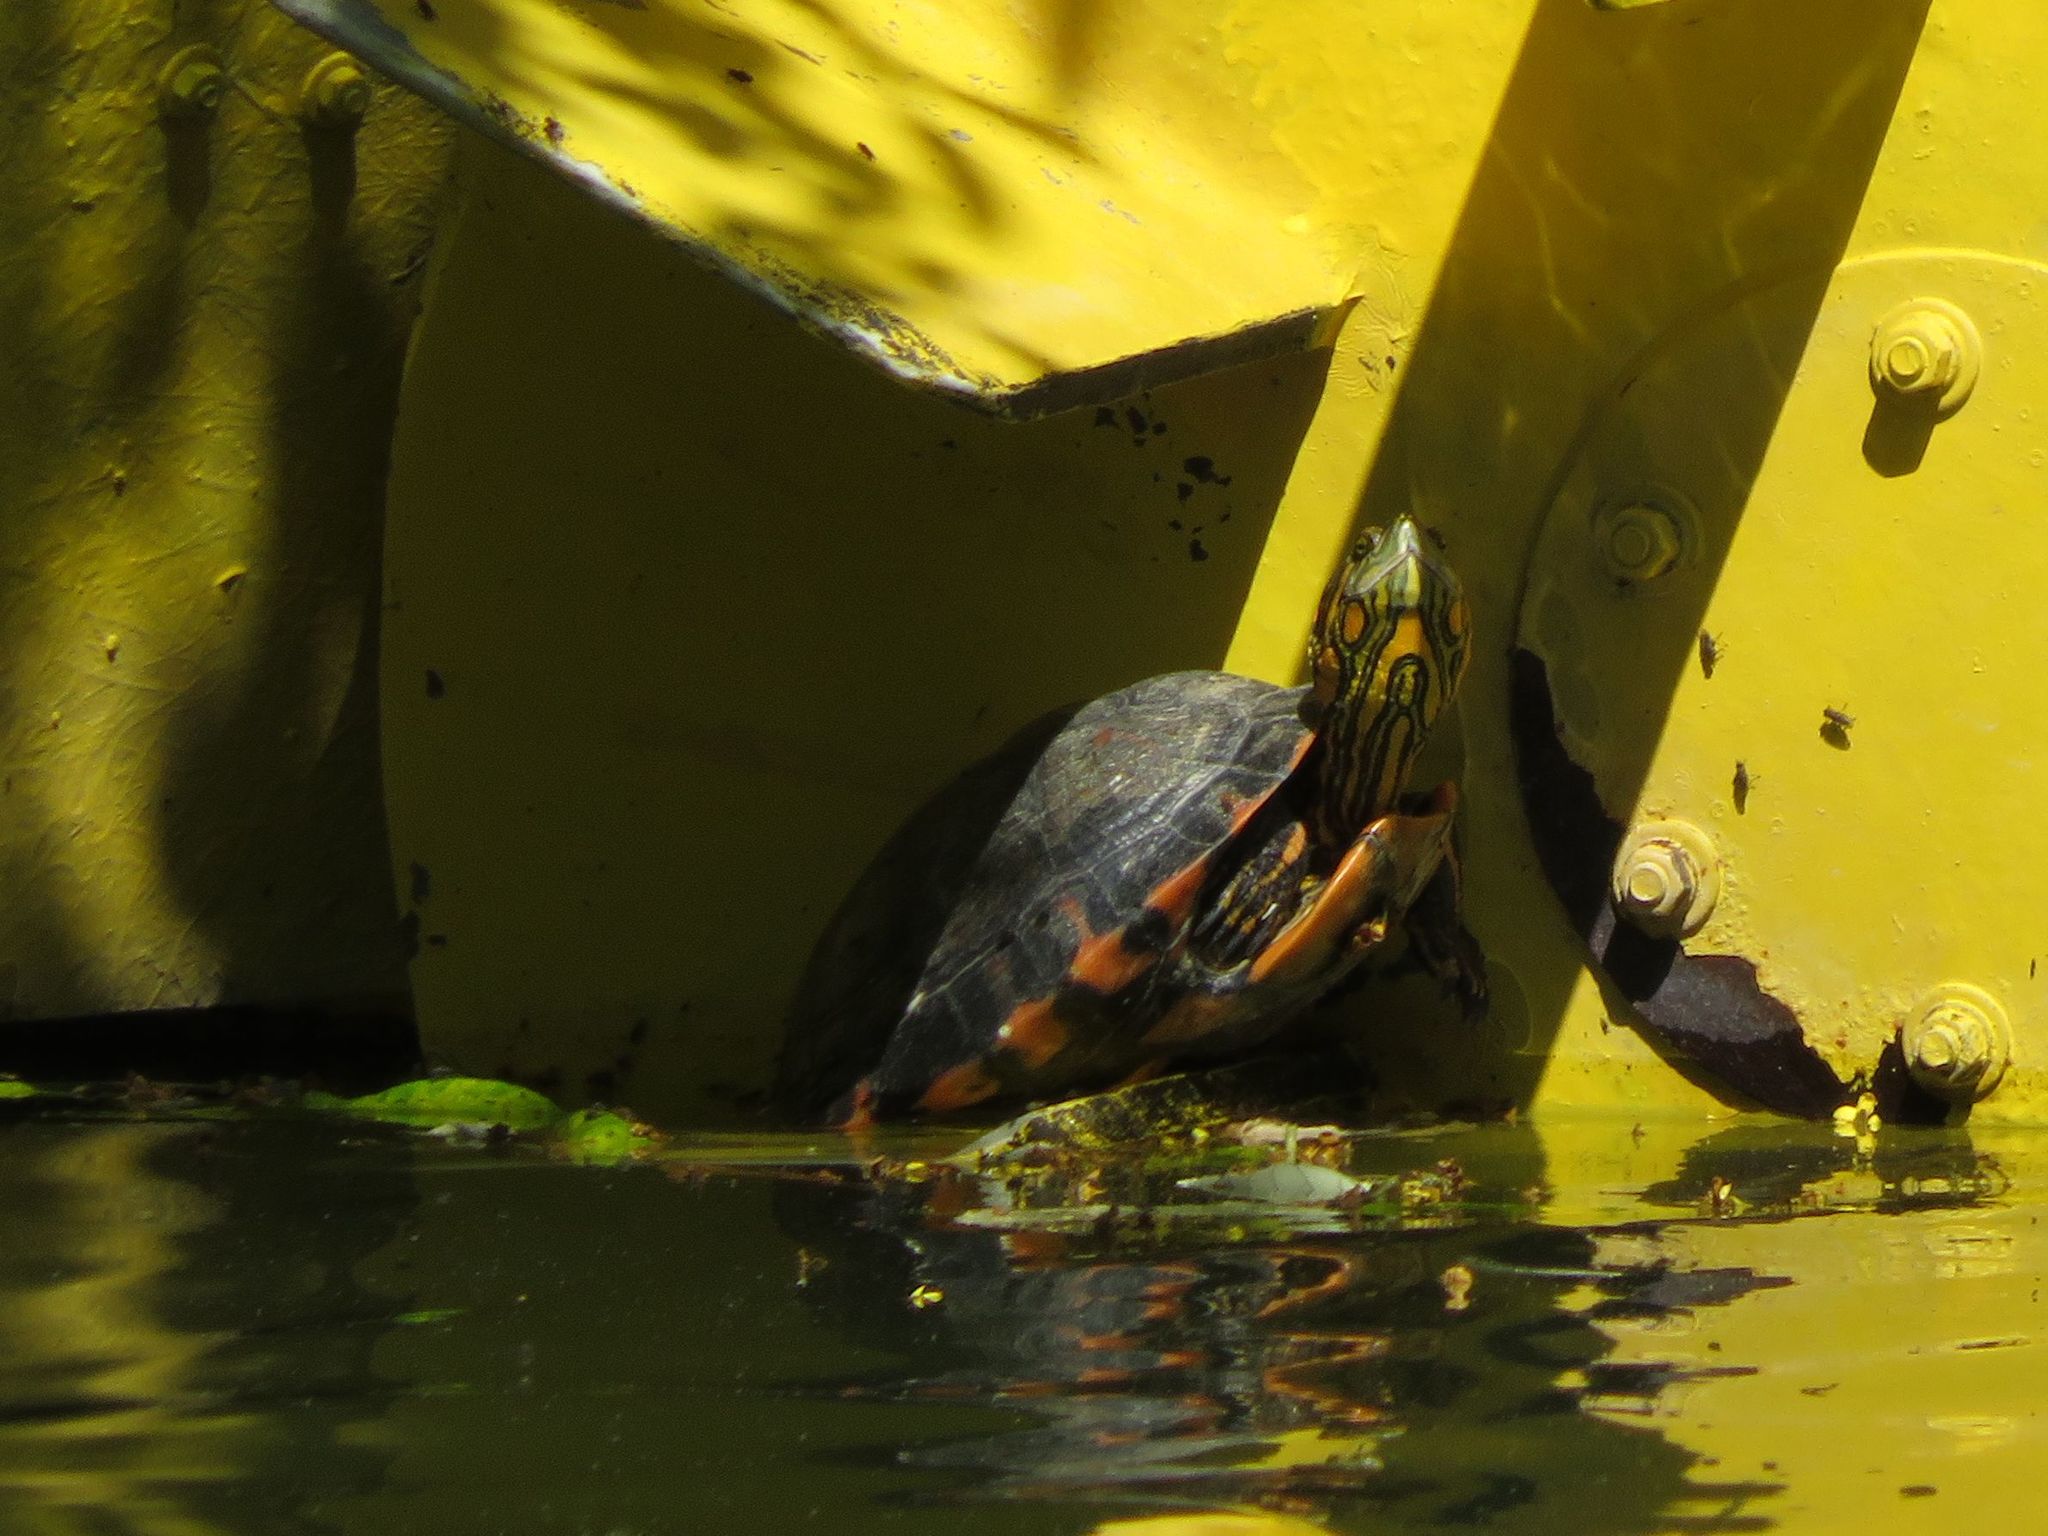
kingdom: Animalia
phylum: Chordata
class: Testudines
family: Emydidae
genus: Trachemys
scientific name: Trachemys dorbigni
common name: Black-bellied slider
